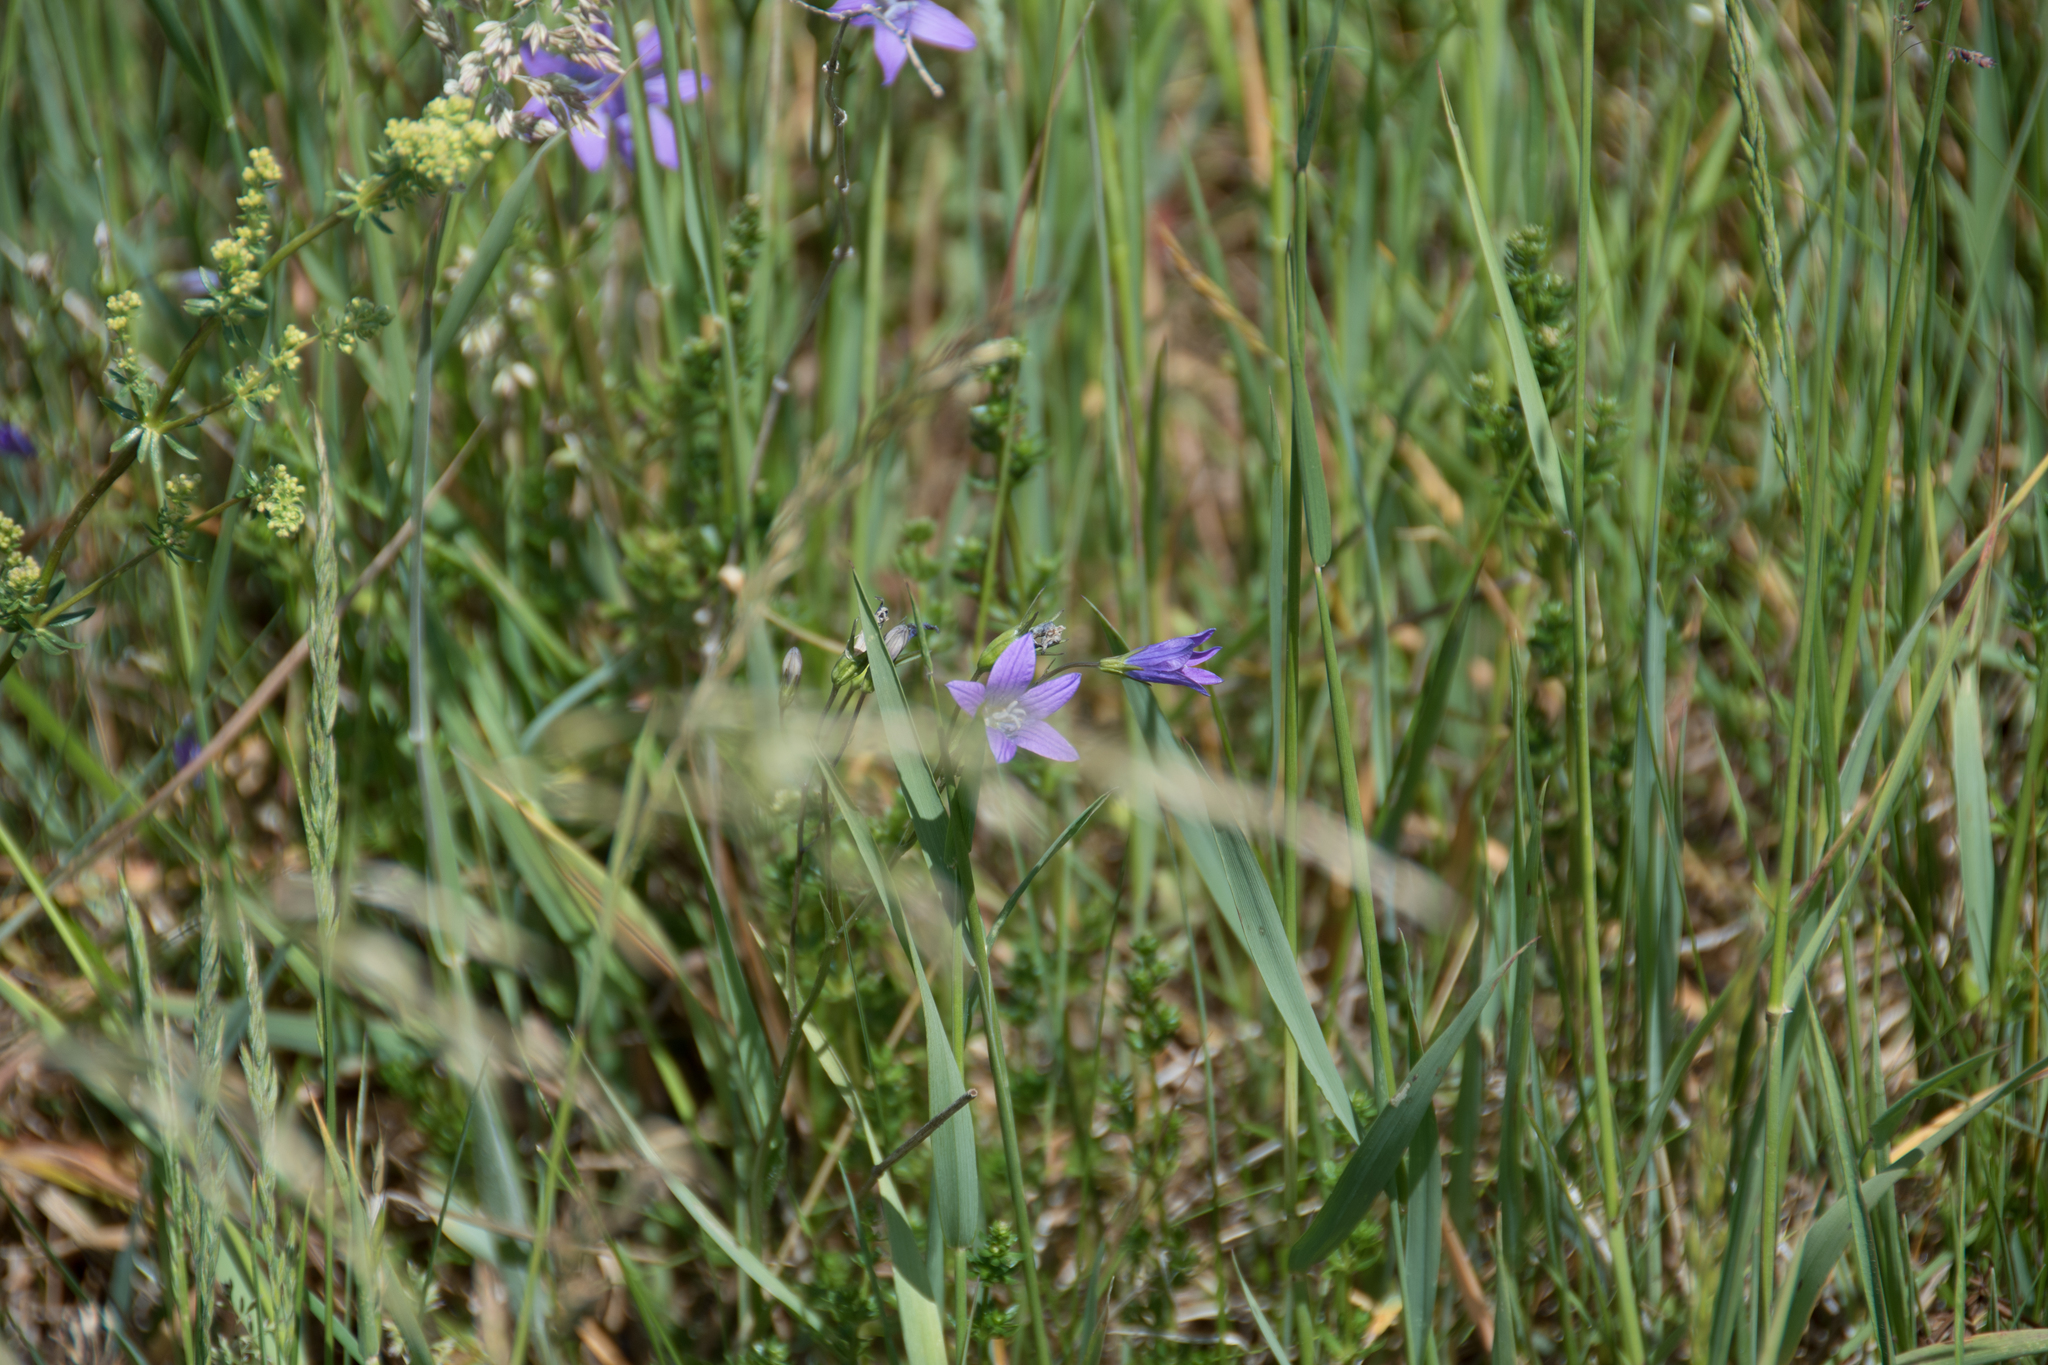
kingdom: Plantae
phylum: Tracheophyta
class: Magnoliopsida
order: Asterales
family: Campanulaceae
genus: Campanula
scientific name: Campanula patula
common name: Spreading bellflower
